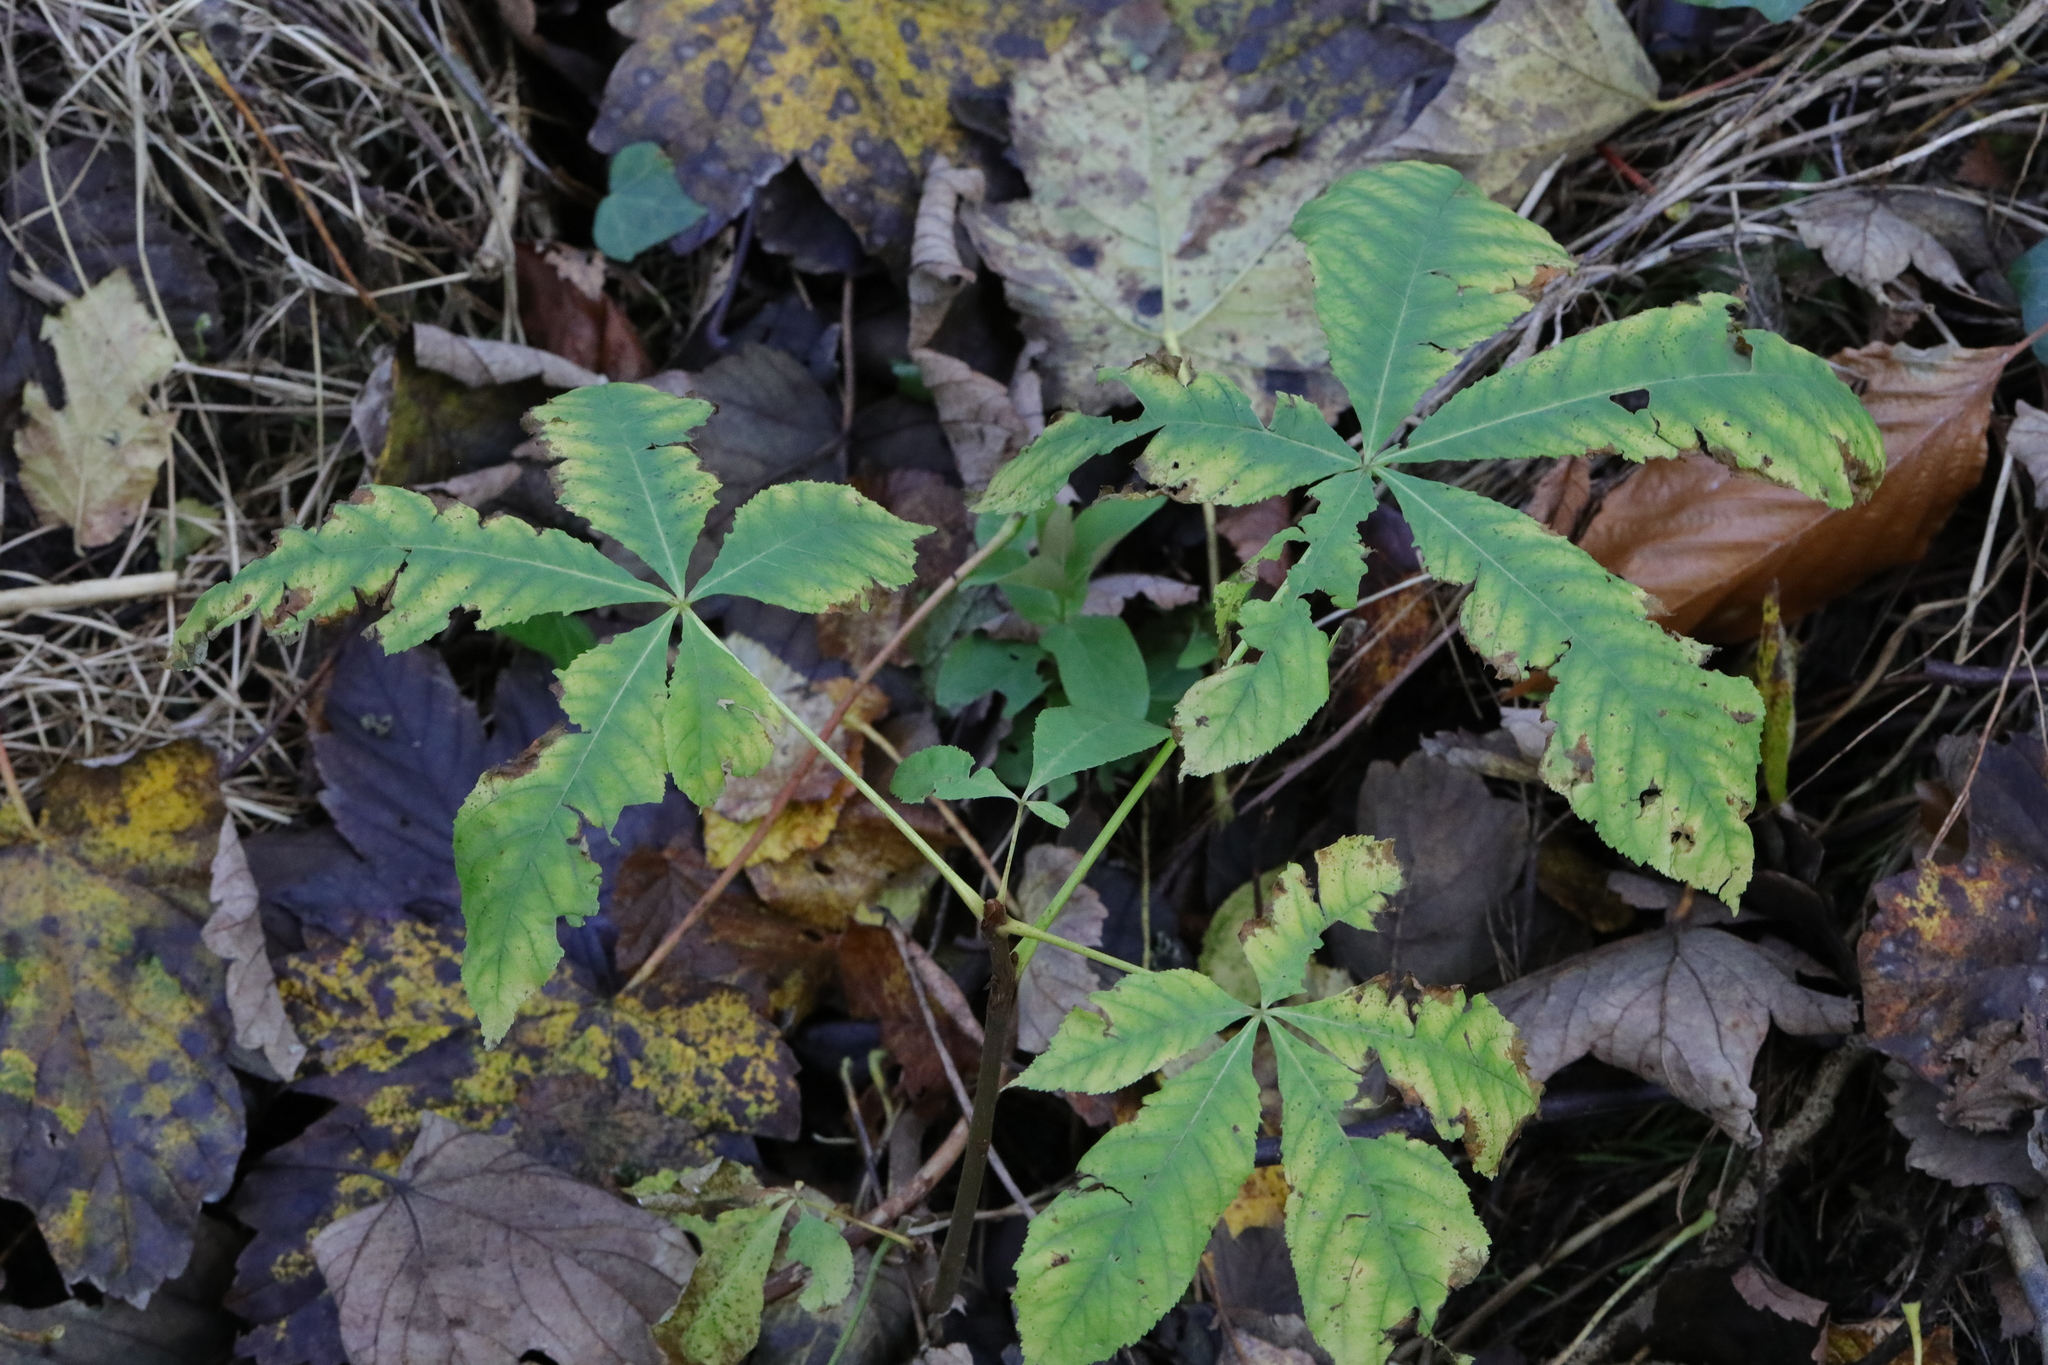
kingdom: Plantae
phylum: Tracheophyta
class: Magnoliopsida
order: Sapindales
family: Sapindaceae
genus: Aesculus
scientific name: Aesculus hippocastanum
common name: Horse-chestnut
